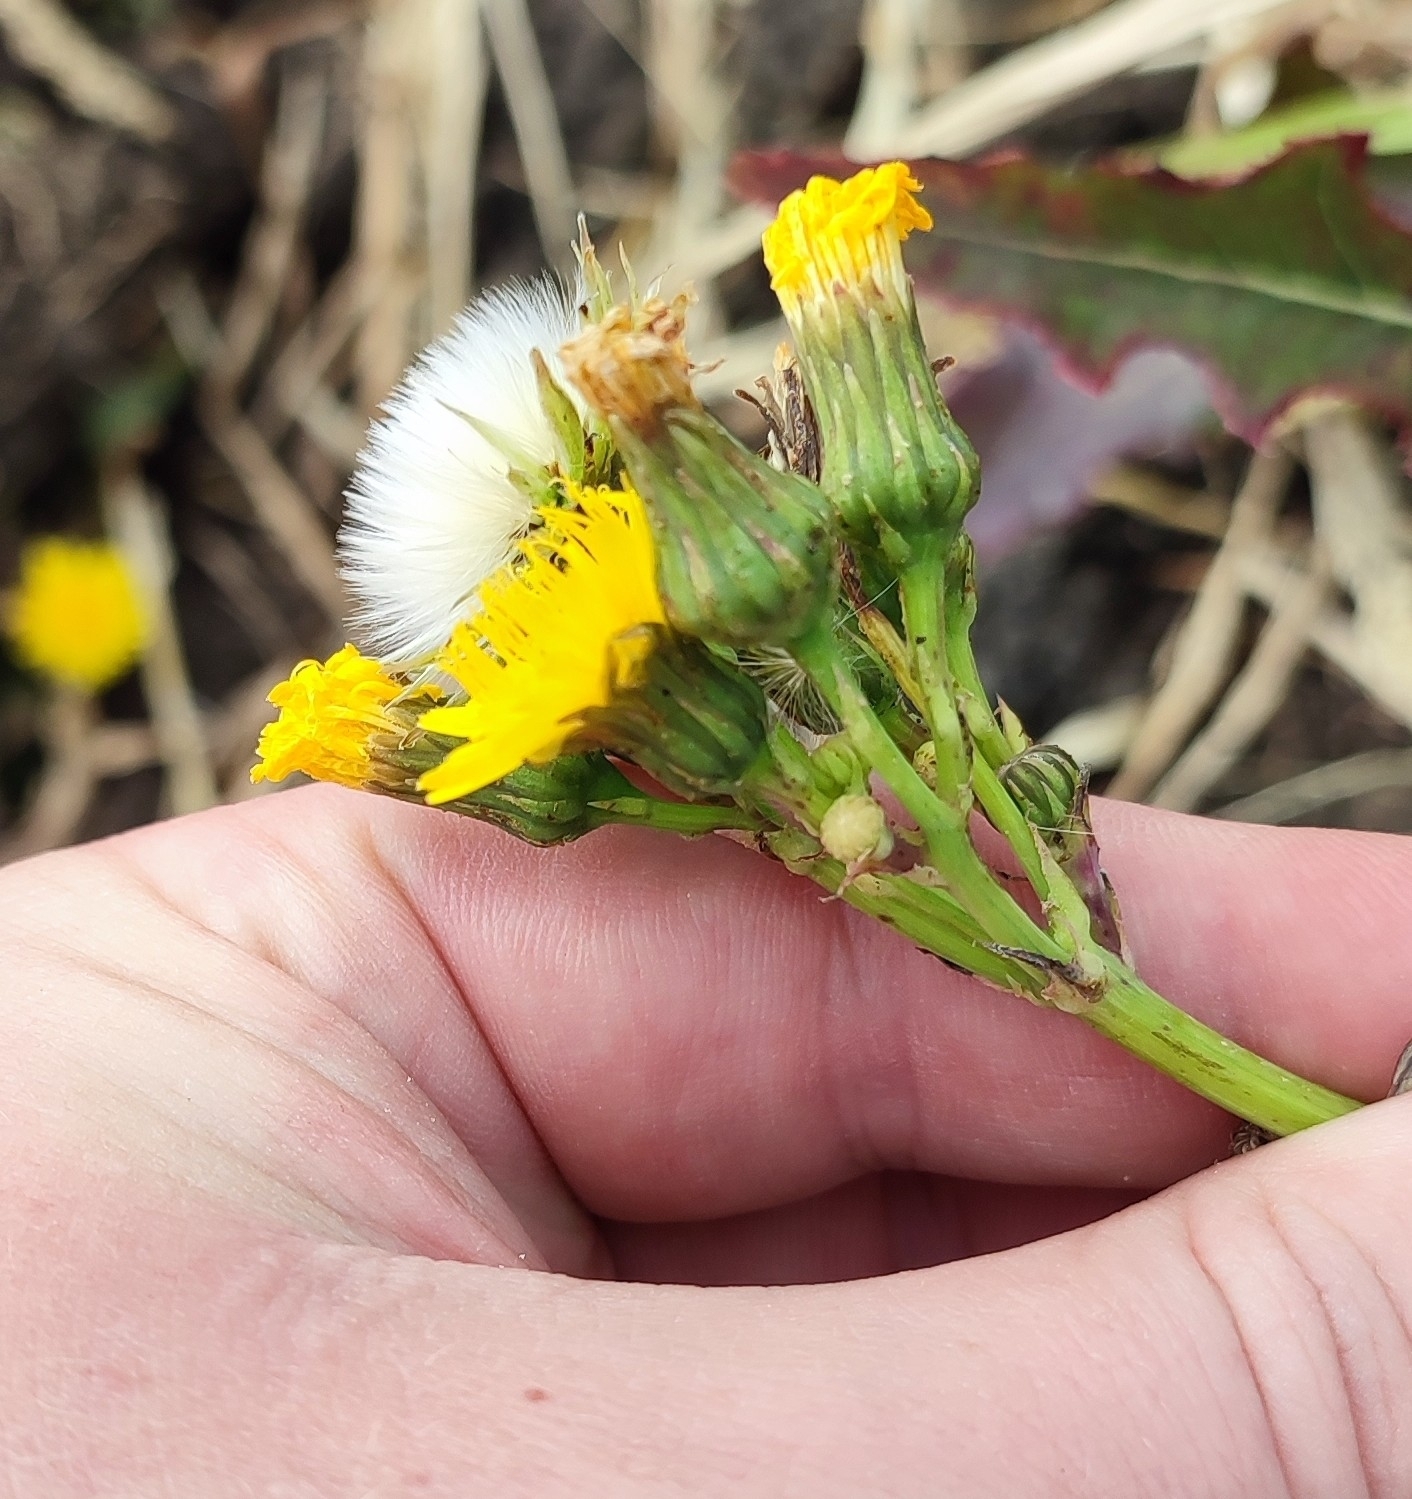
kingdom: Plantae
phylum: Tracheophyta
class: Magnoliopsida
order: Asterales
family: Asteraceae
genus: Sonchus
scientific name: Sonchus arvensis
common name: Perennial sow-thistle
